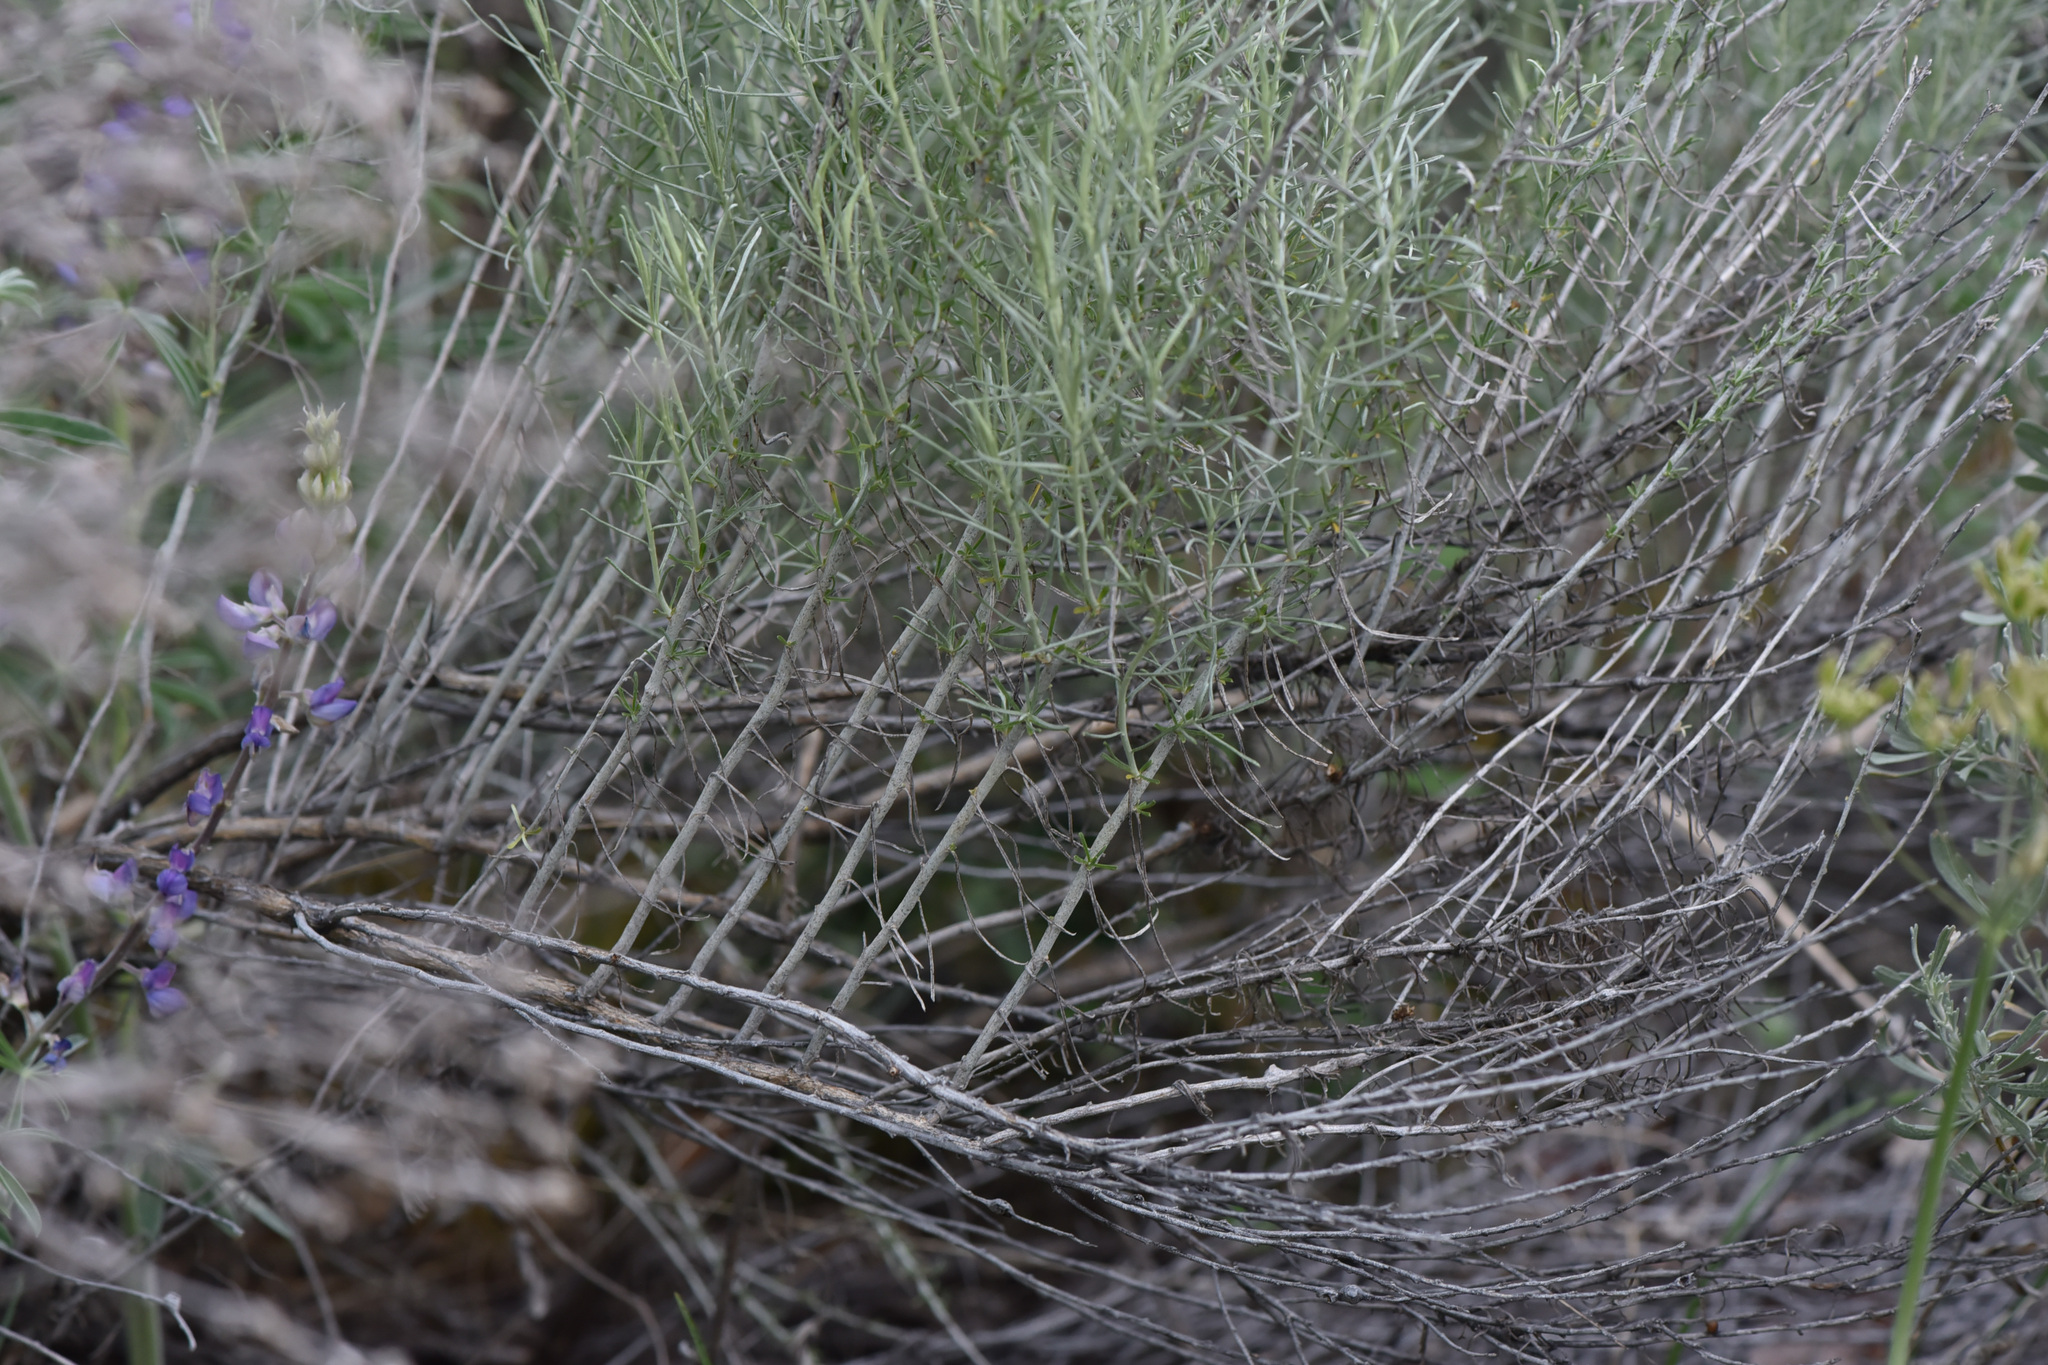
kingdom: Plantae
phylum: Tracheophyta
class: Magnoliopsida
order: Asterales
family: Asteraceae
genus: Ericameria
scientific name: Ericameria nauseosa
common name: Rubber rabbitbrush
